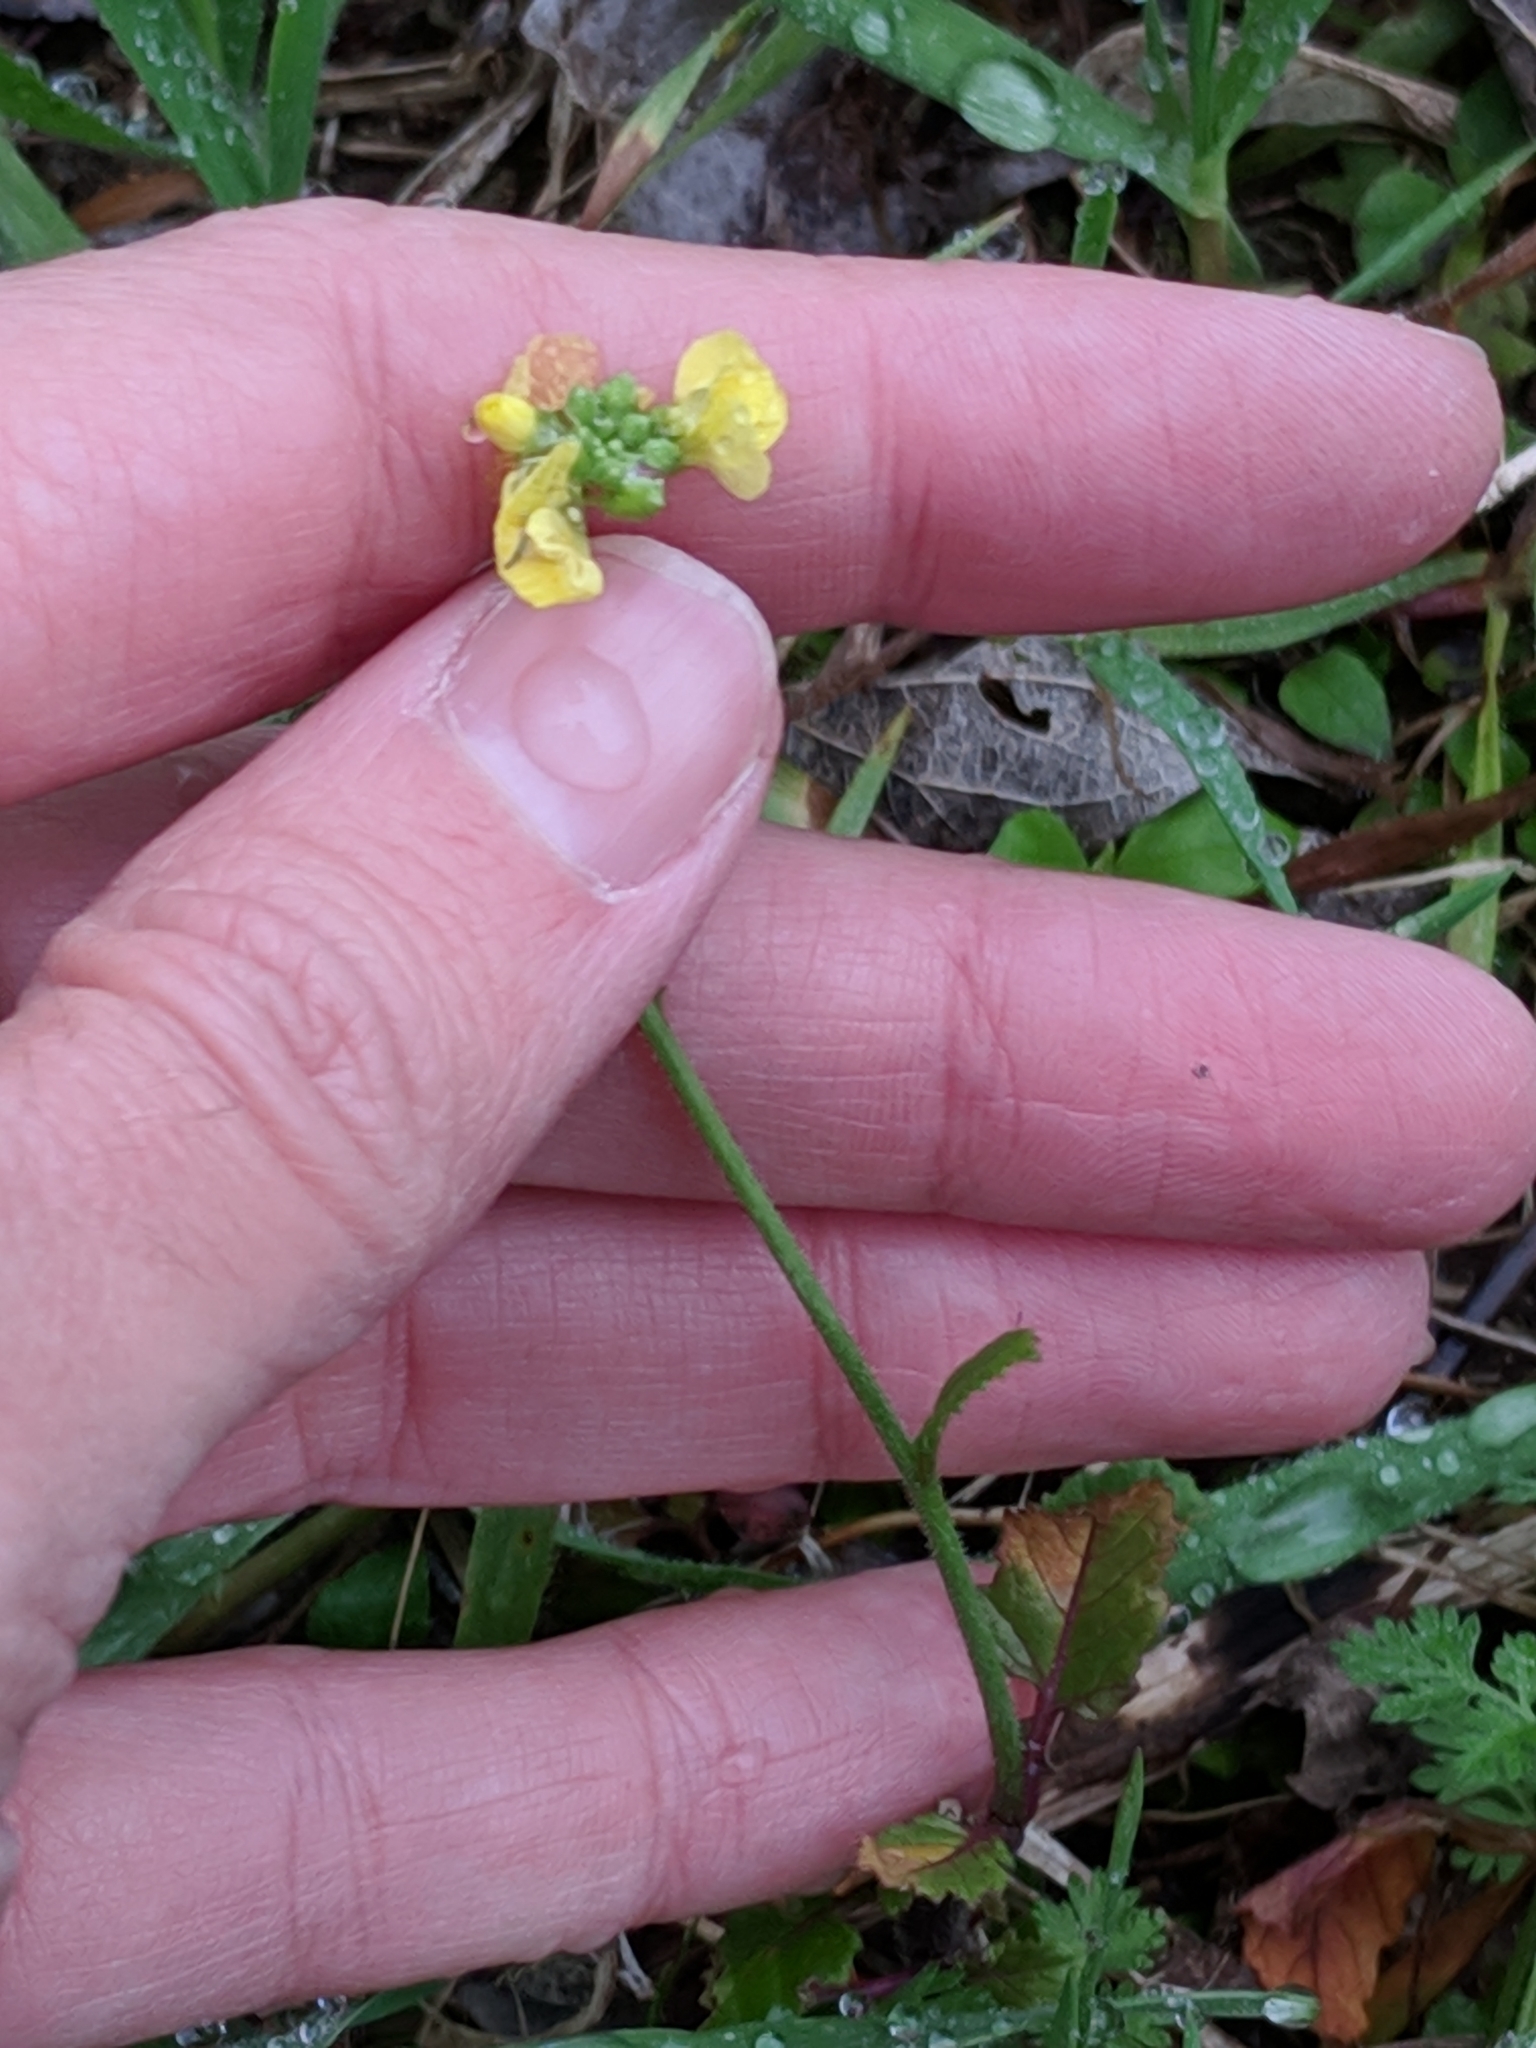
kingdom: Plantae
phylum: Tracheophyta
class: Magnoliopsida
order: Brassicales
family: Brassicaceae
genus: Rapistrum
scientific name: Rapistrum rugosum
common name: Annual bastardcabbage
